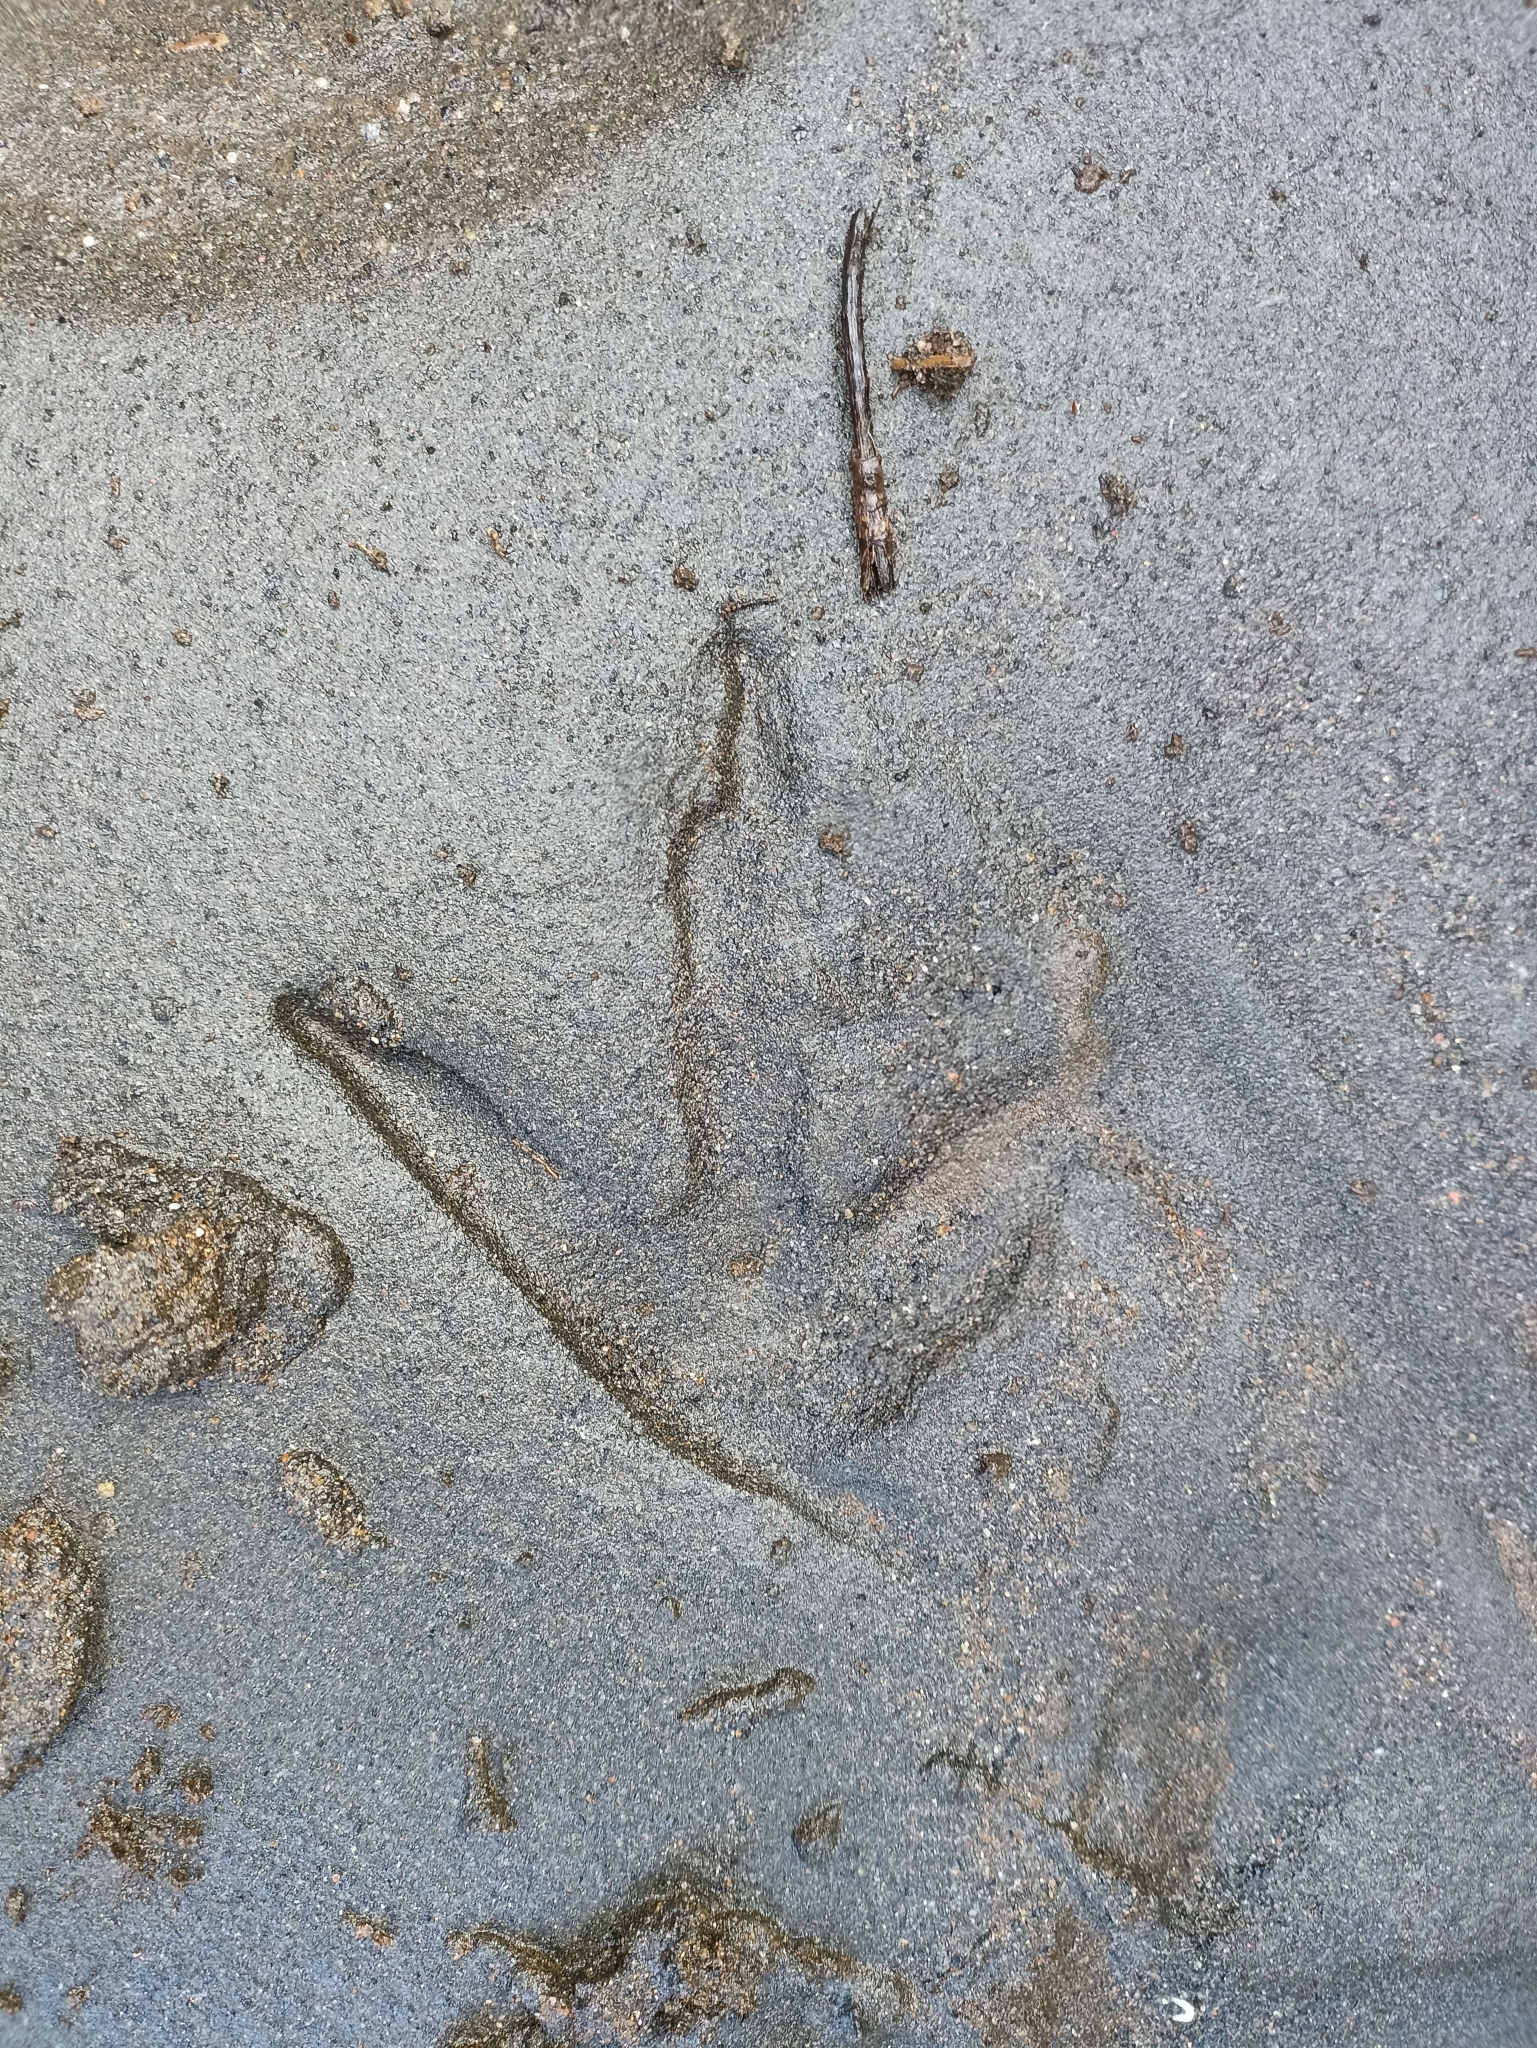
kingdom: Animalia
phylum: Chordata
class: Aves
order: Apterygiformes
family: Apterygidae
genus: Apteryx
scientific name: Apteryx mantelli
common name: North island brown kiwi
